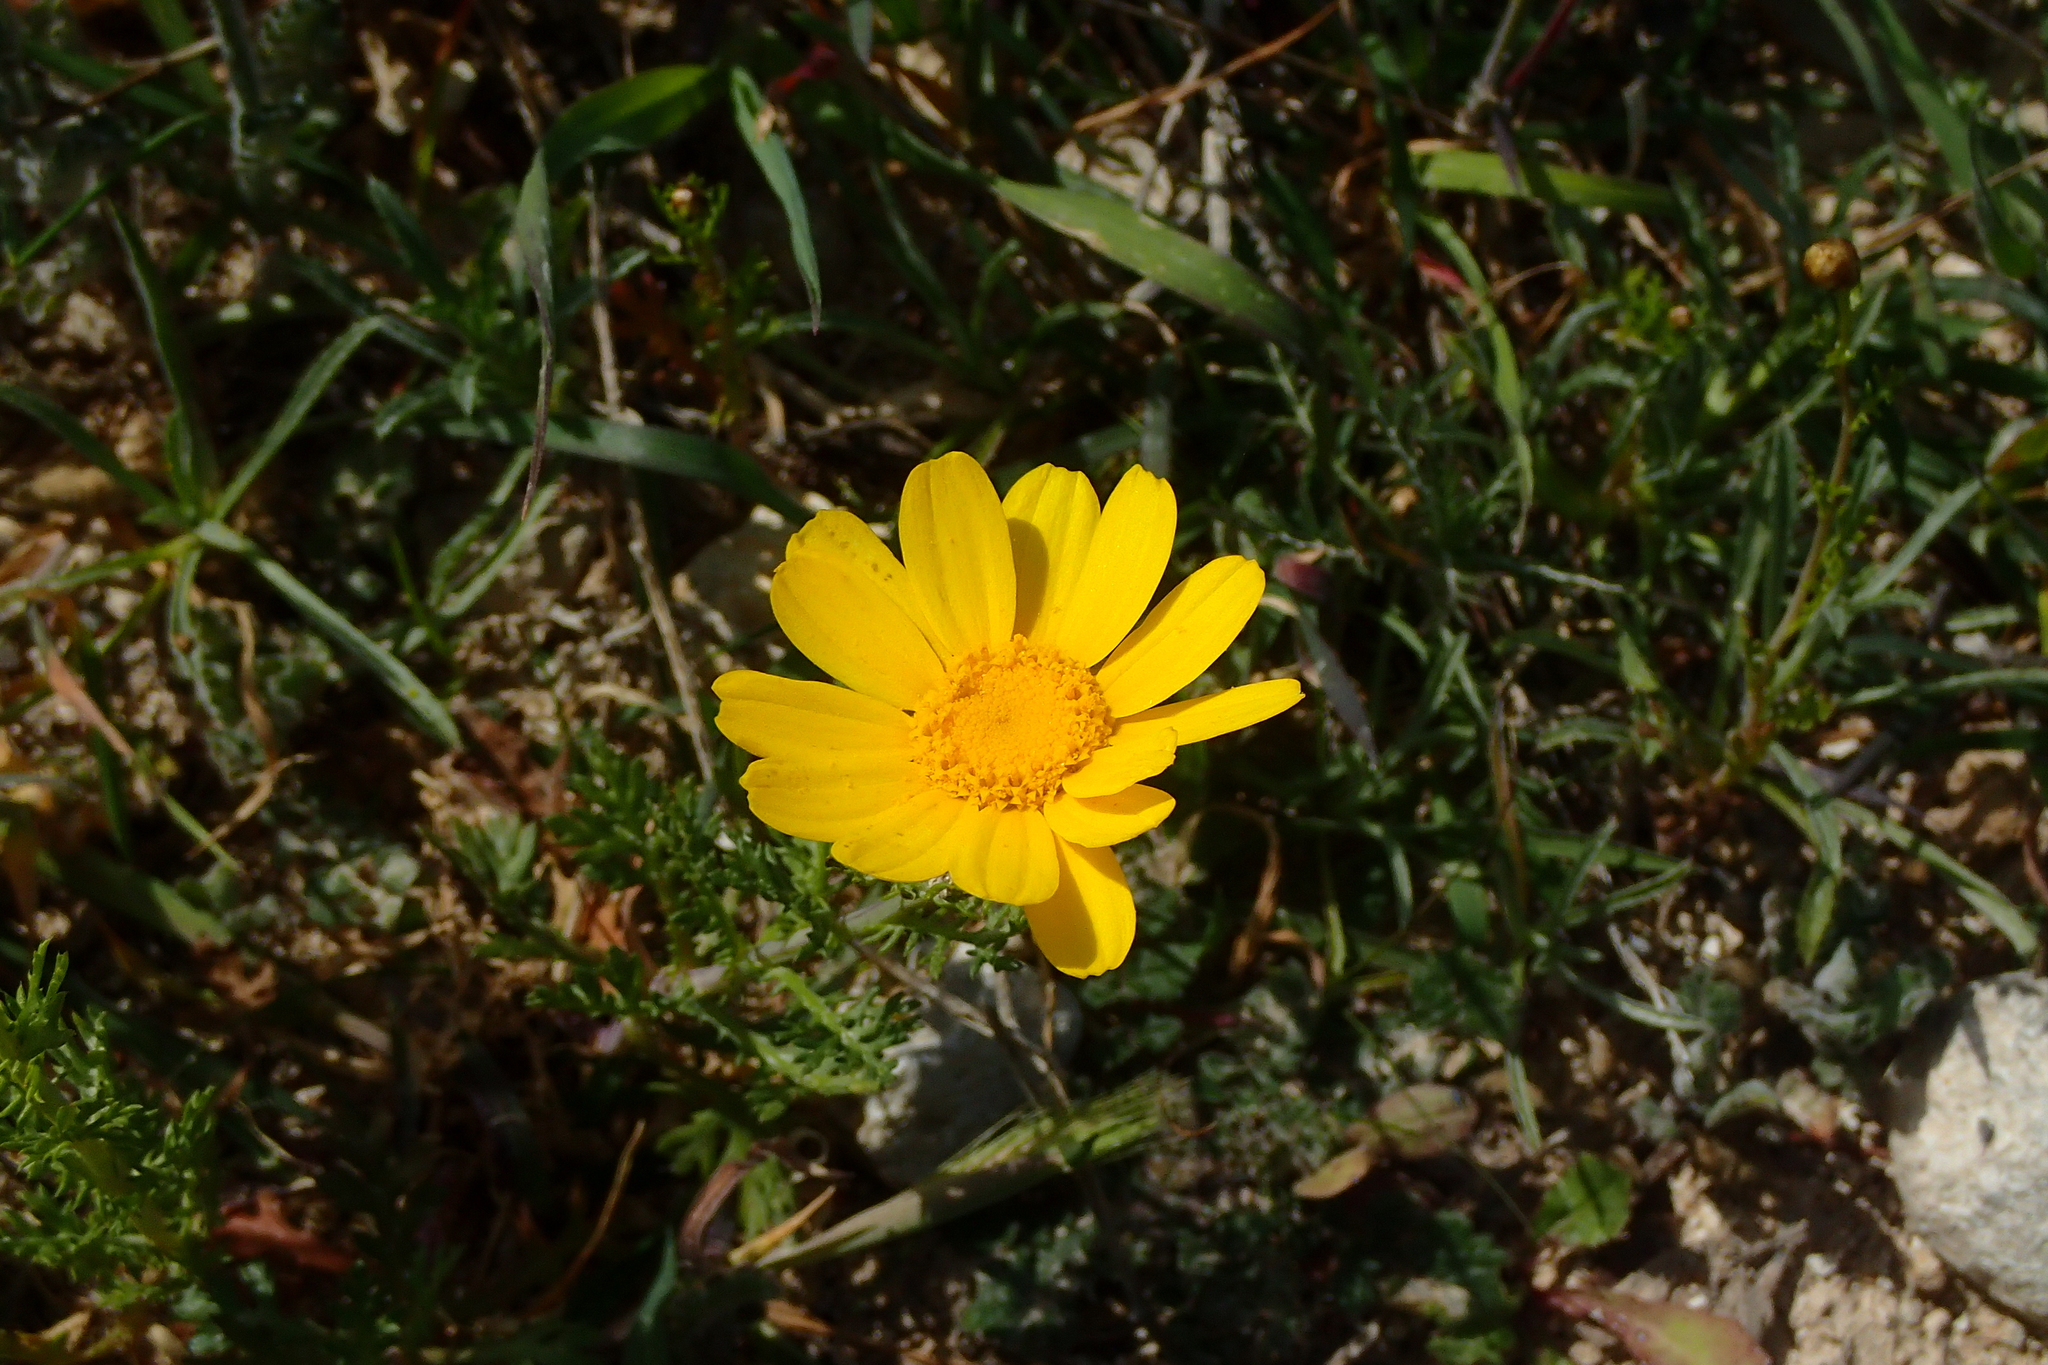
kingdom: Plantae
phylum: Tracheophyta
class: Magnoliopsida
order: Asterales
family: Asteraceae
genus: Glebionis
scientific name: Glebionis coronaria
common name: Crowndaisy
